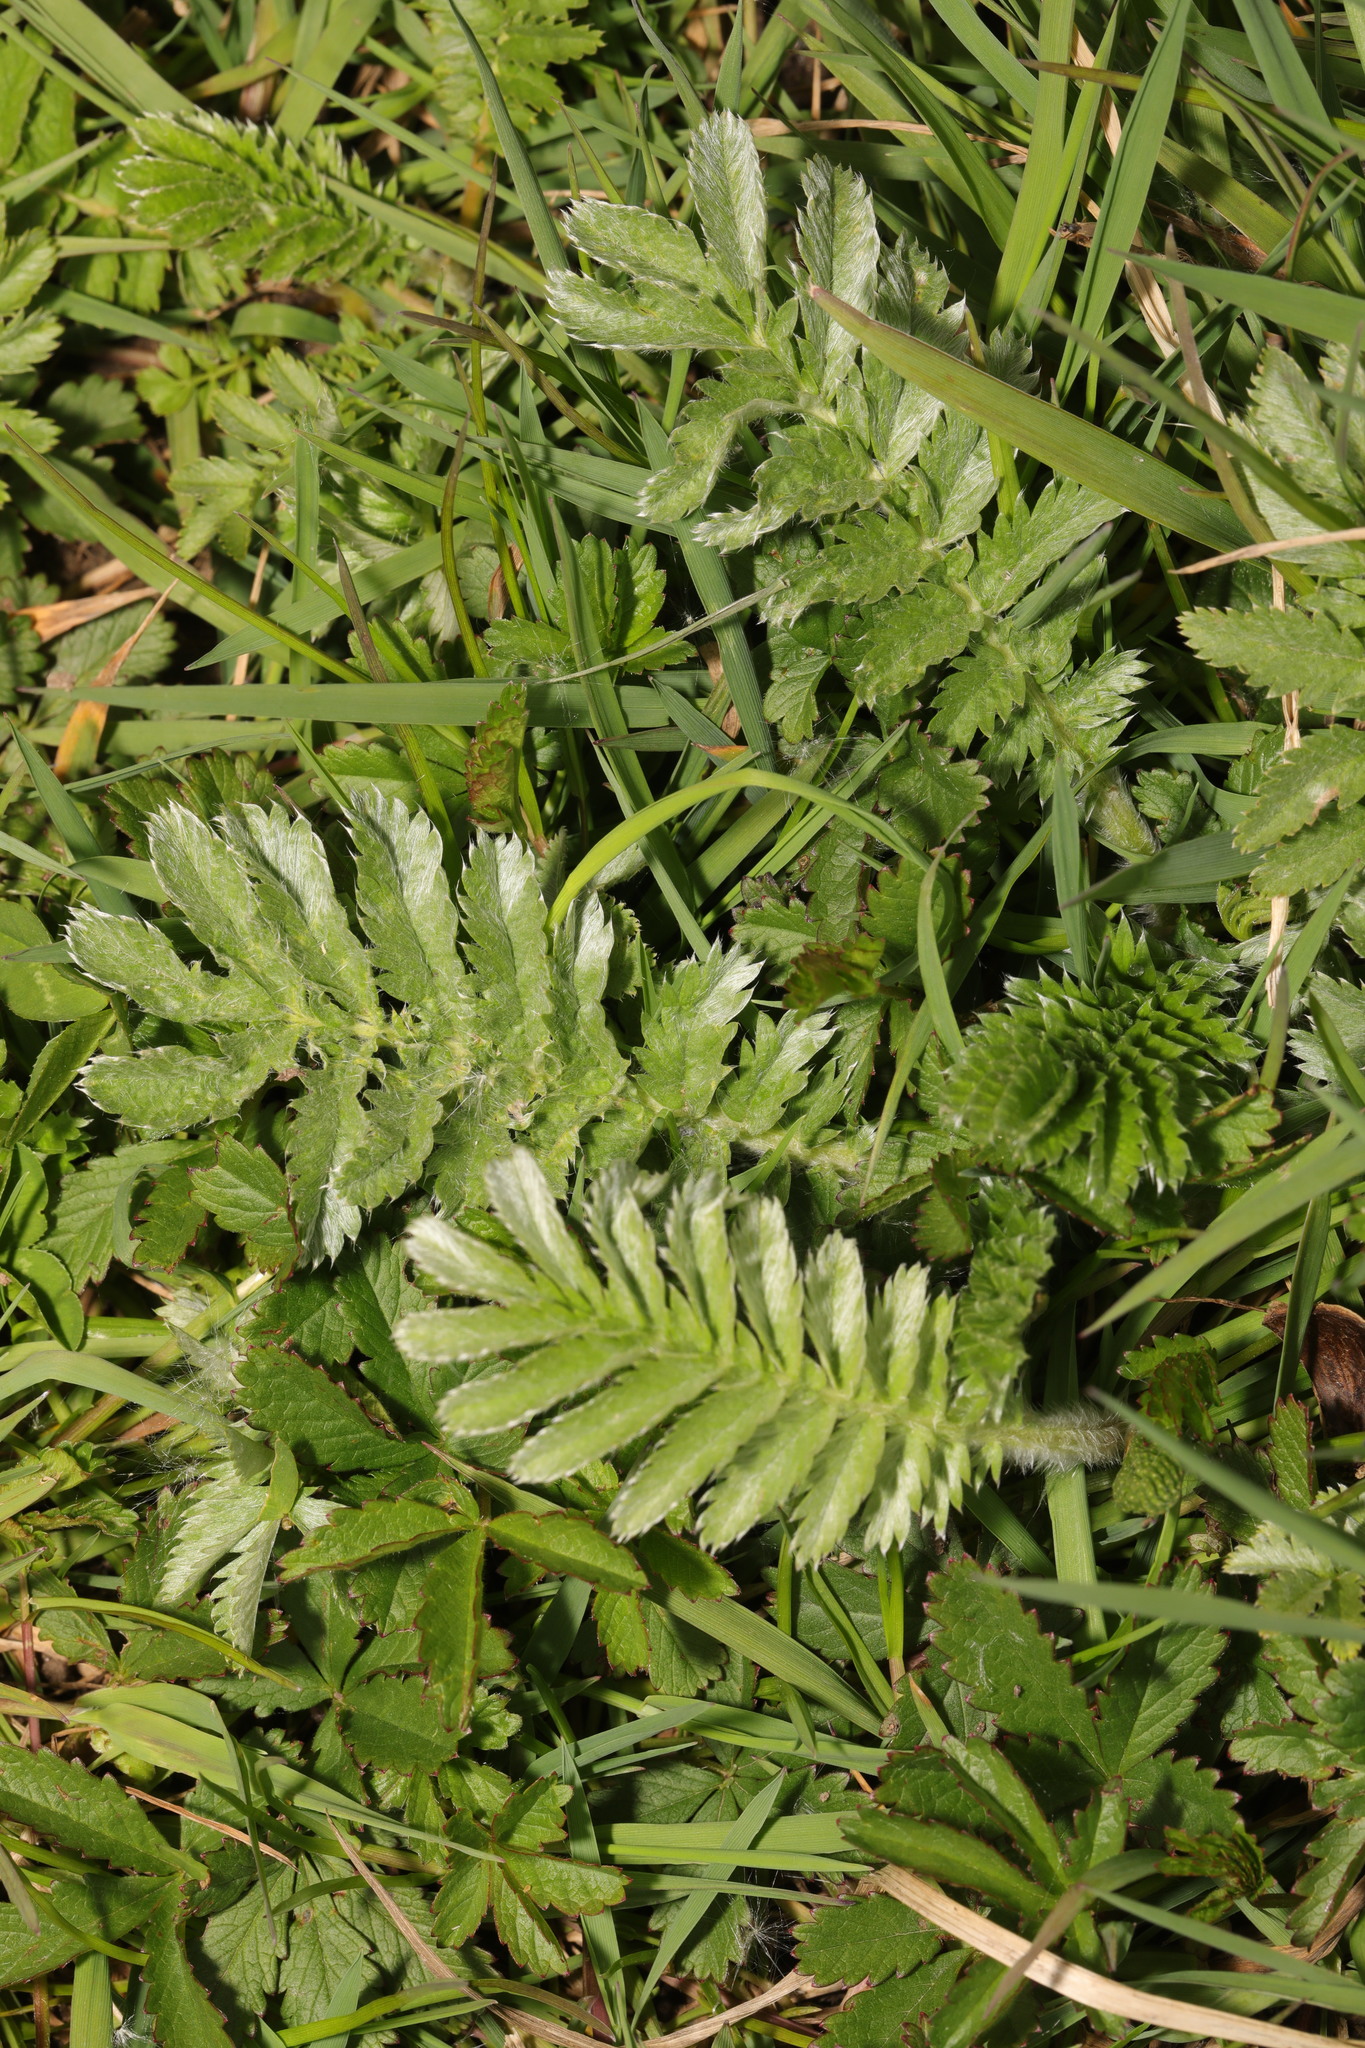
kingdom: Plantae
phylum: Tracheophyta
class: Magnoliopsida
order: Rosales
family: Rosaceae
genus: Argentina
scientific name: Argentina anserina
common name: Common silverweed
